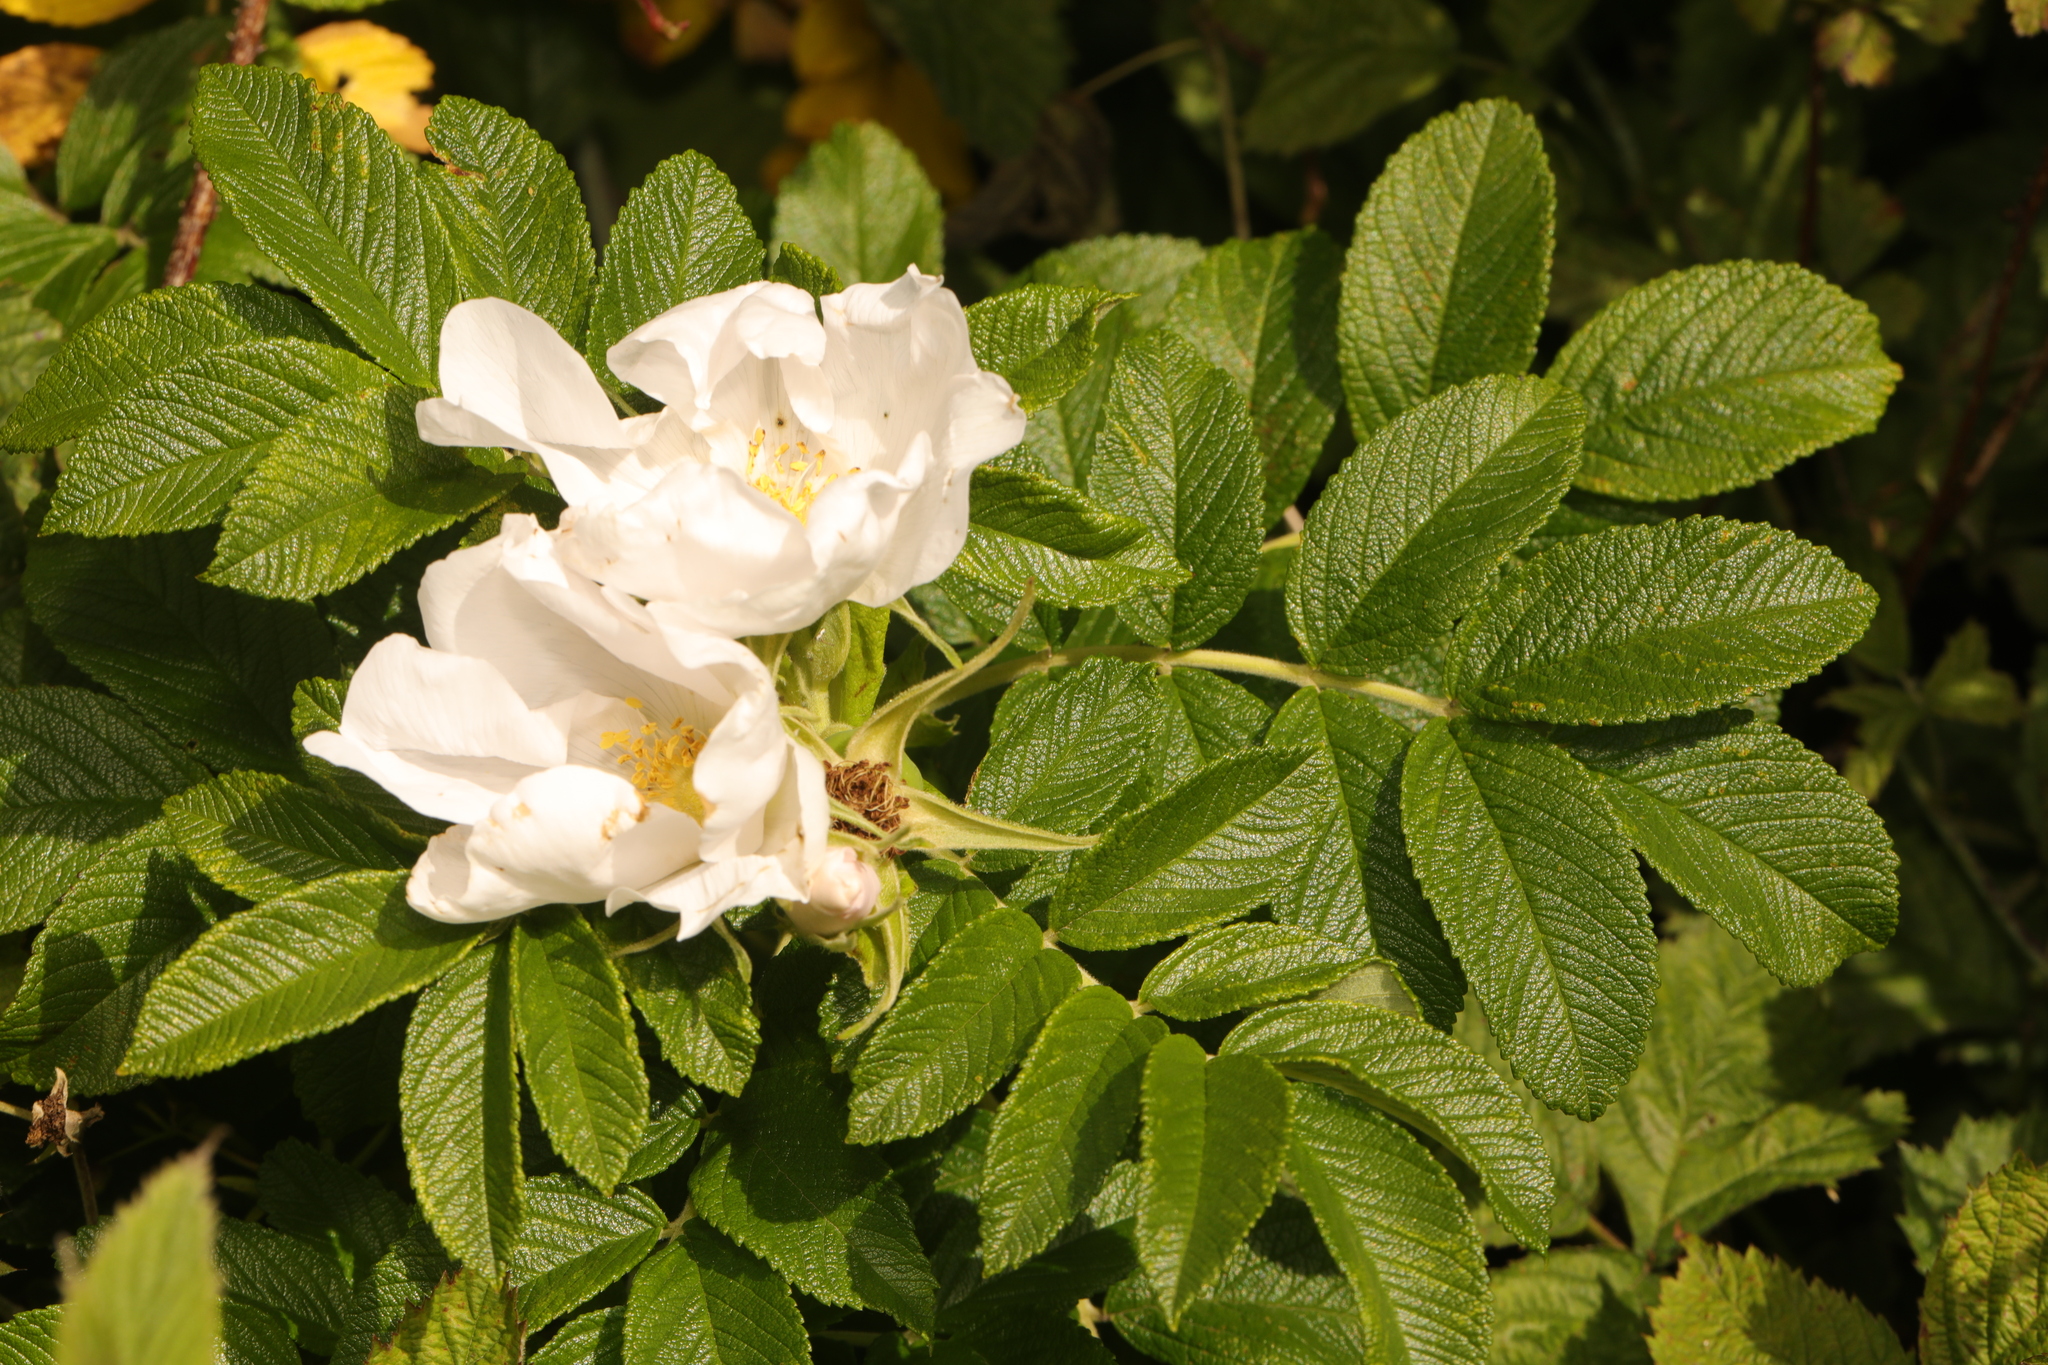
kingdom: Plantae
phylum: Tracheophyta
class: Magnoliopsida
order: Rosales
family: Rosaceae
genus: Rosa
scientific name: Rosa rugosa
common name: Japanese rose
